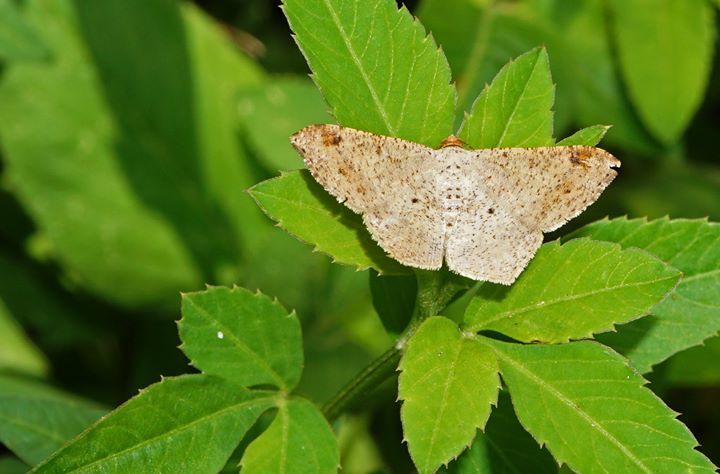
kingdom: Animalia
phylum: Arthropoda
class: Insecta
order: Lepidoptera
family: Geometridae
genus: Macaria
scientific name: Macaria abydata
